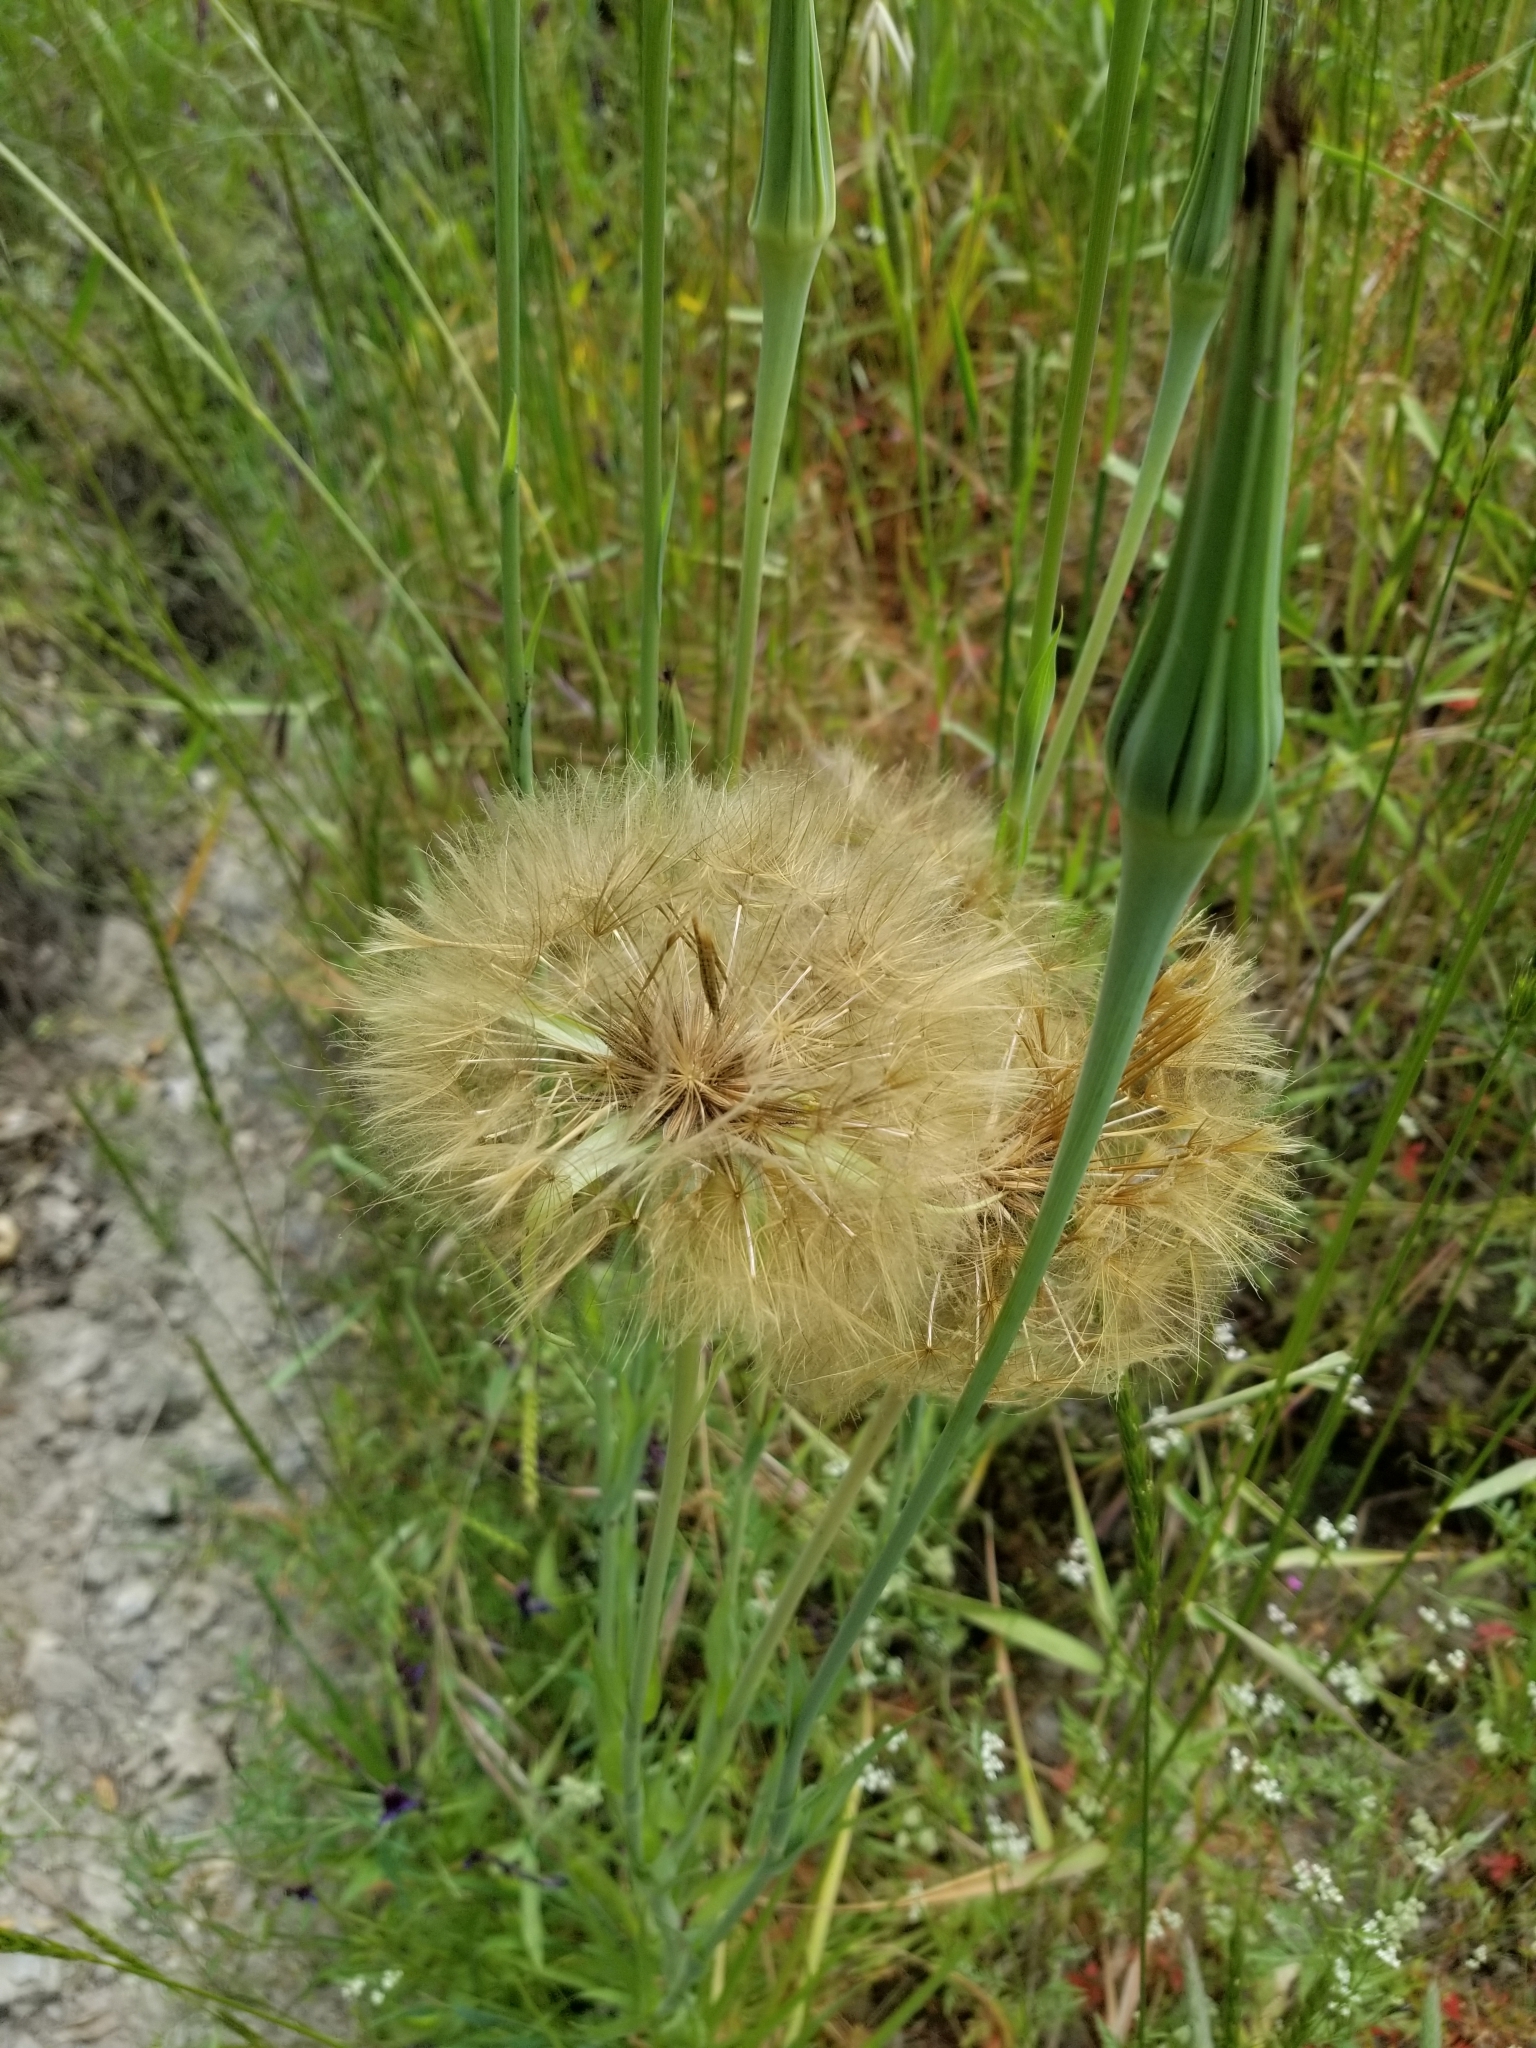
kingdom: Plantae
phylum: Tracheophyta
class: Magnoliopsida
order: Asterales
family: Asteraceae
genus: Tragopogon
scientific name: Tragopogon porrifolius
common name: Salsify
